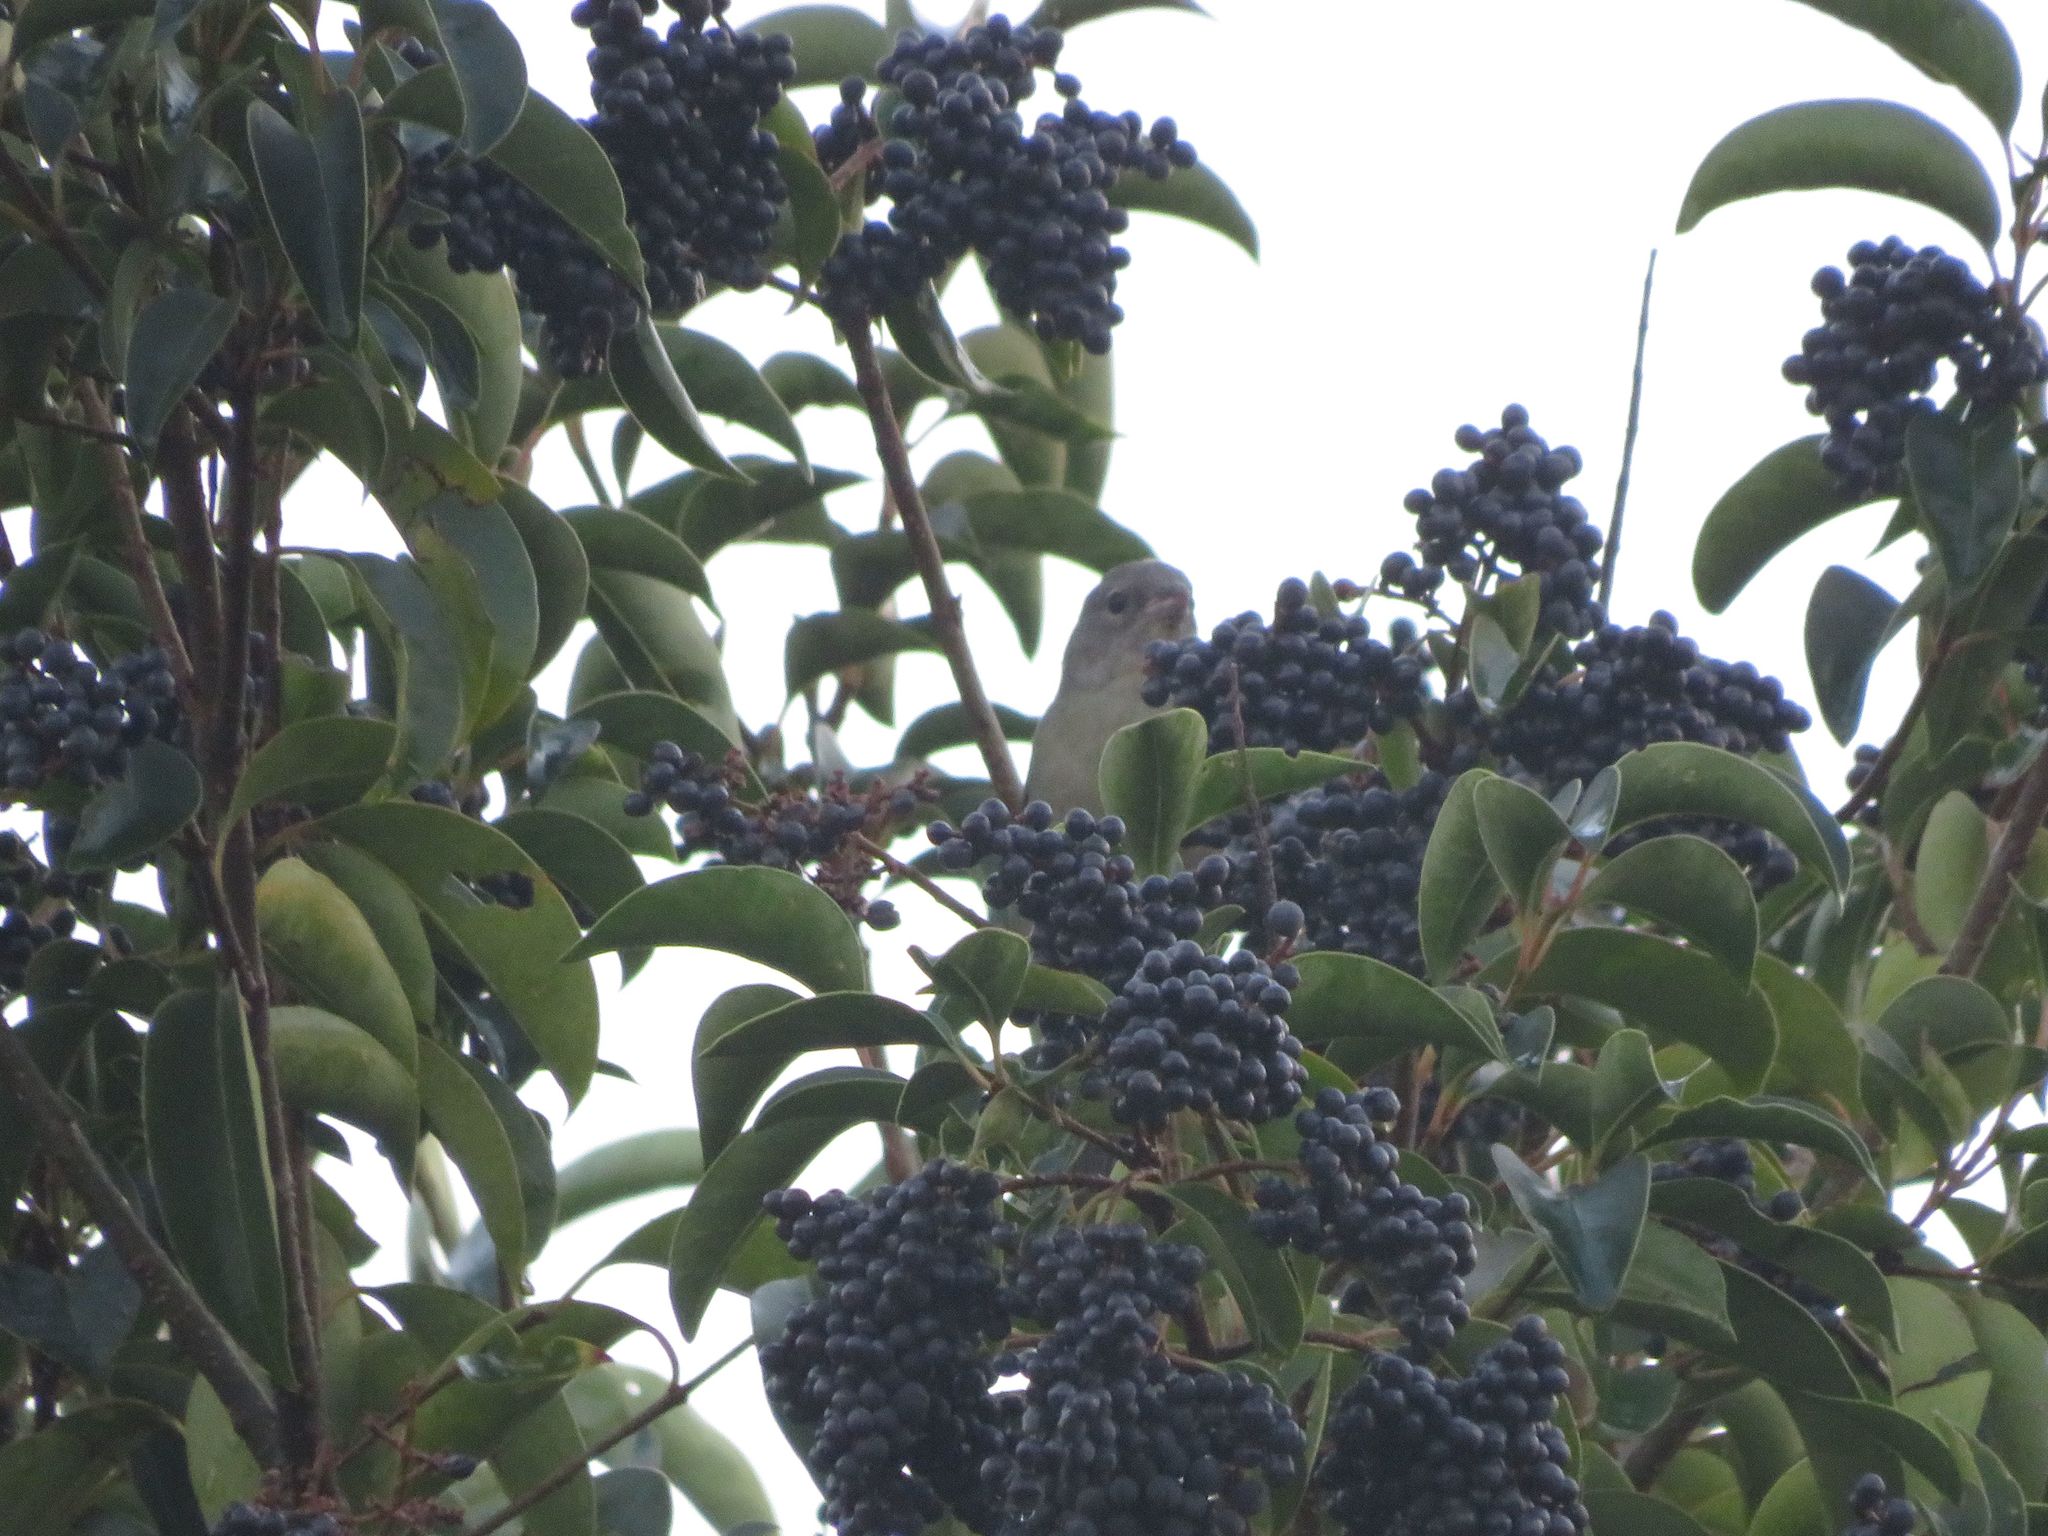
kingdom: Animalia
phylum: Chordata
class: Aves
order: Passeriformes
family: Thraupidae
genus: Saltator
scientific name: Saltator similis
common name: Green-winged saltator
